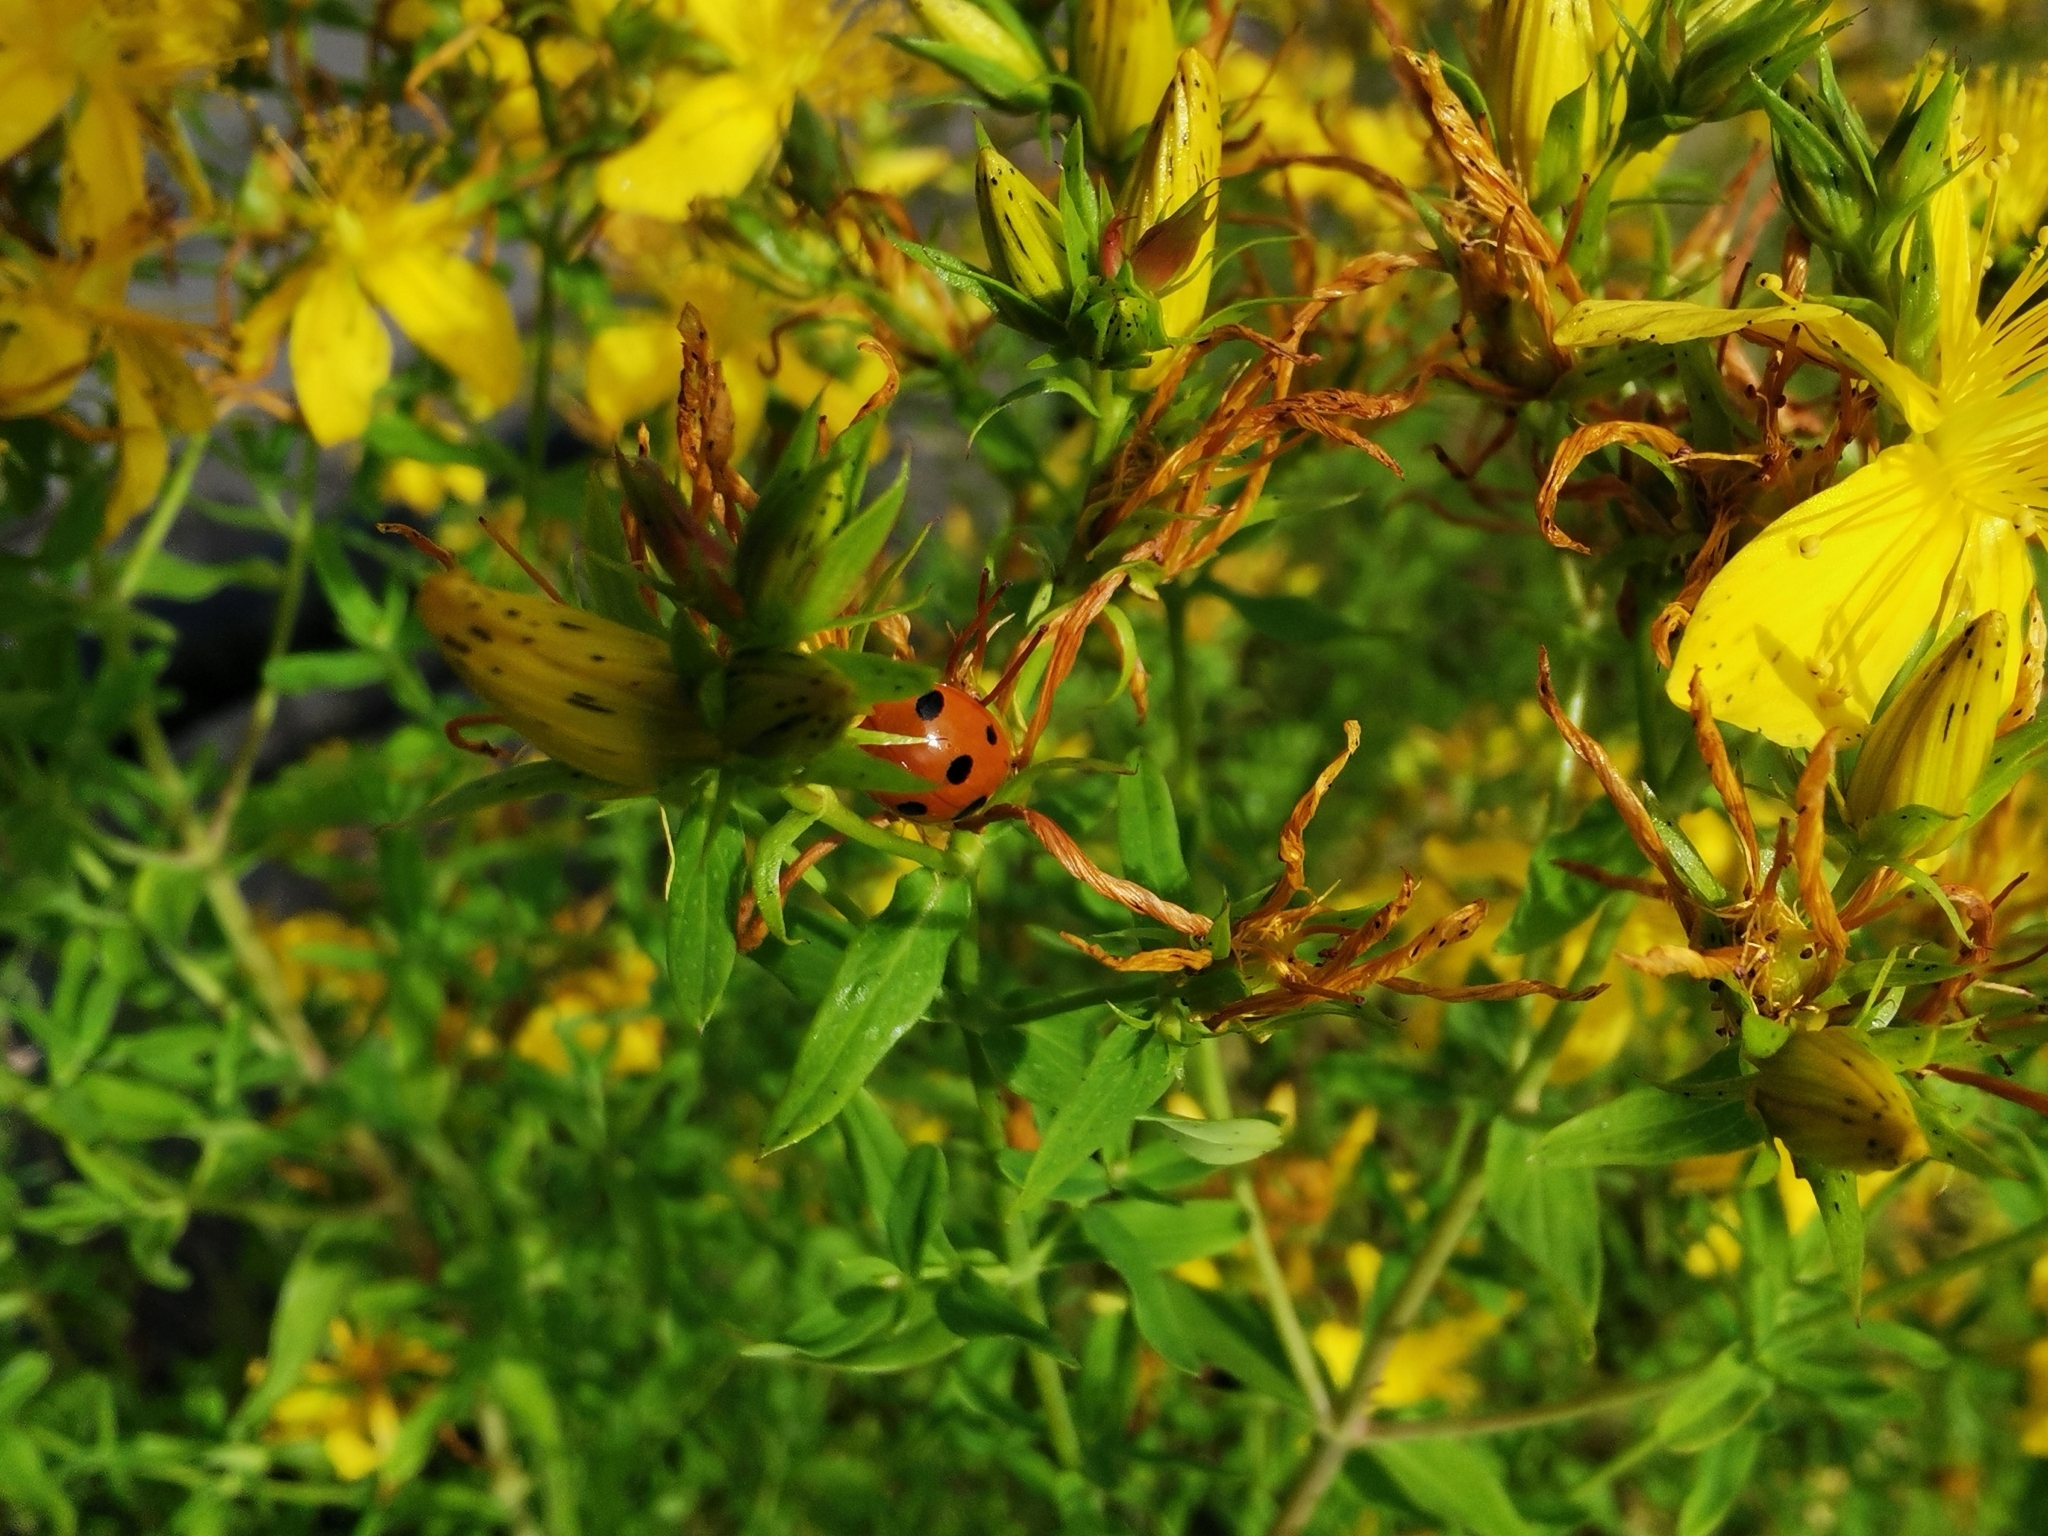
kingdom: Animalia
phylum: Arthropoda
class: Insecta
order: Coleoptera
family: Coccinellidae
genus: Coccinella
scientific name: Coccinella septempunctata
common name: Sevenspotted lady beetle
